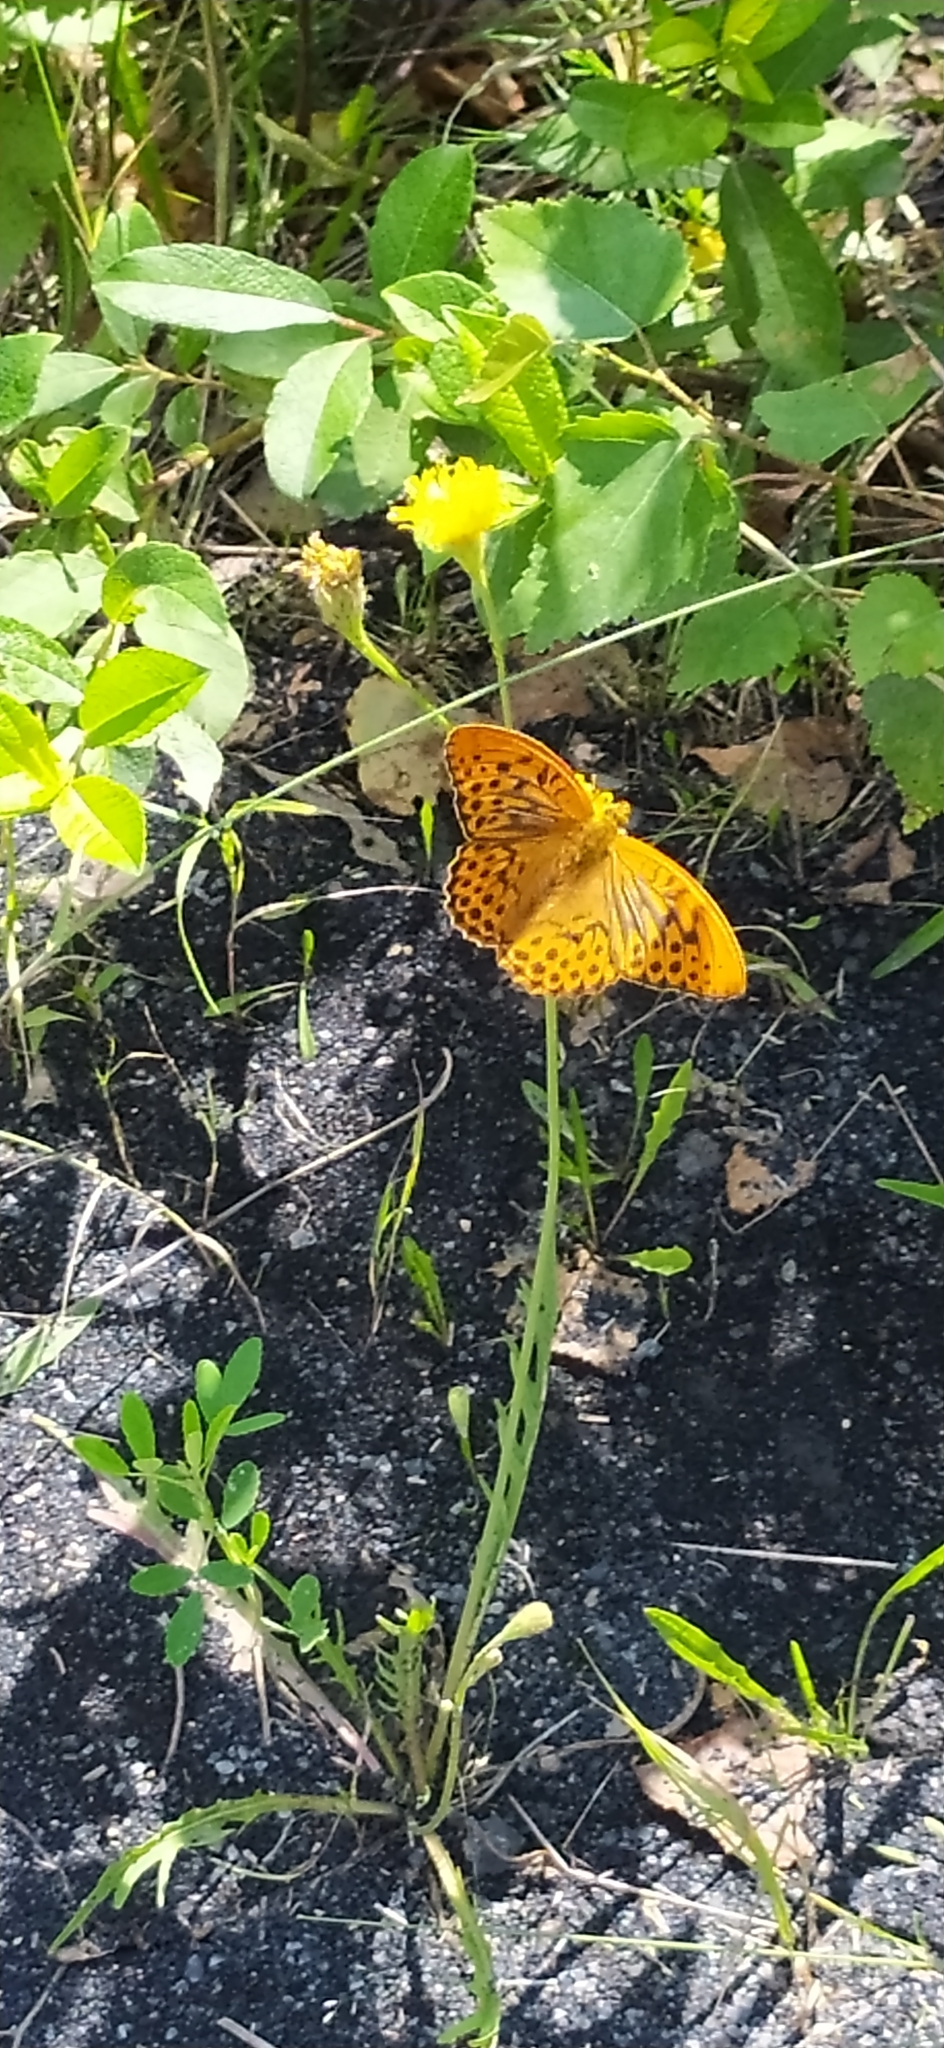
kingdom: Animalia
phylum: Arthropoda
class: Insecta
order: Lepidoptera
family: Nymphalidae
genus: Argynnis
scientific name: Argynnis paphia
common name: Silver-washed fritillary
